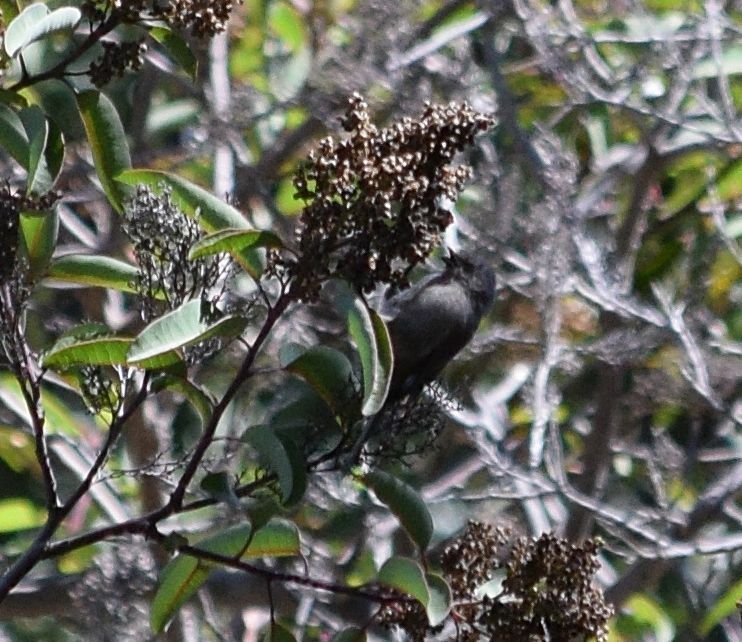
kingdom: Animalia
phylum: Chordata
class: Aves
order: Passeriformes
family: Aegithalidae
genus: Psaltriparus
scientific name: Psaltriparus minimus
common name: American bushtit
